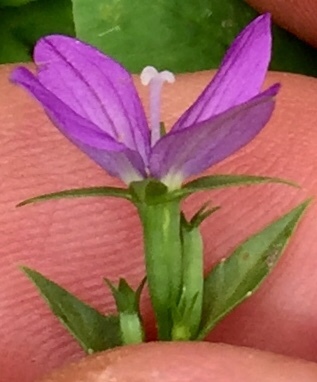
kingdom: Plantae
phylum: Tracheophyta
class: Magnoliopsida
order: Asterales
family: Campanulaceae
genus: Triodanis
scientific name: Triodanis biflora
